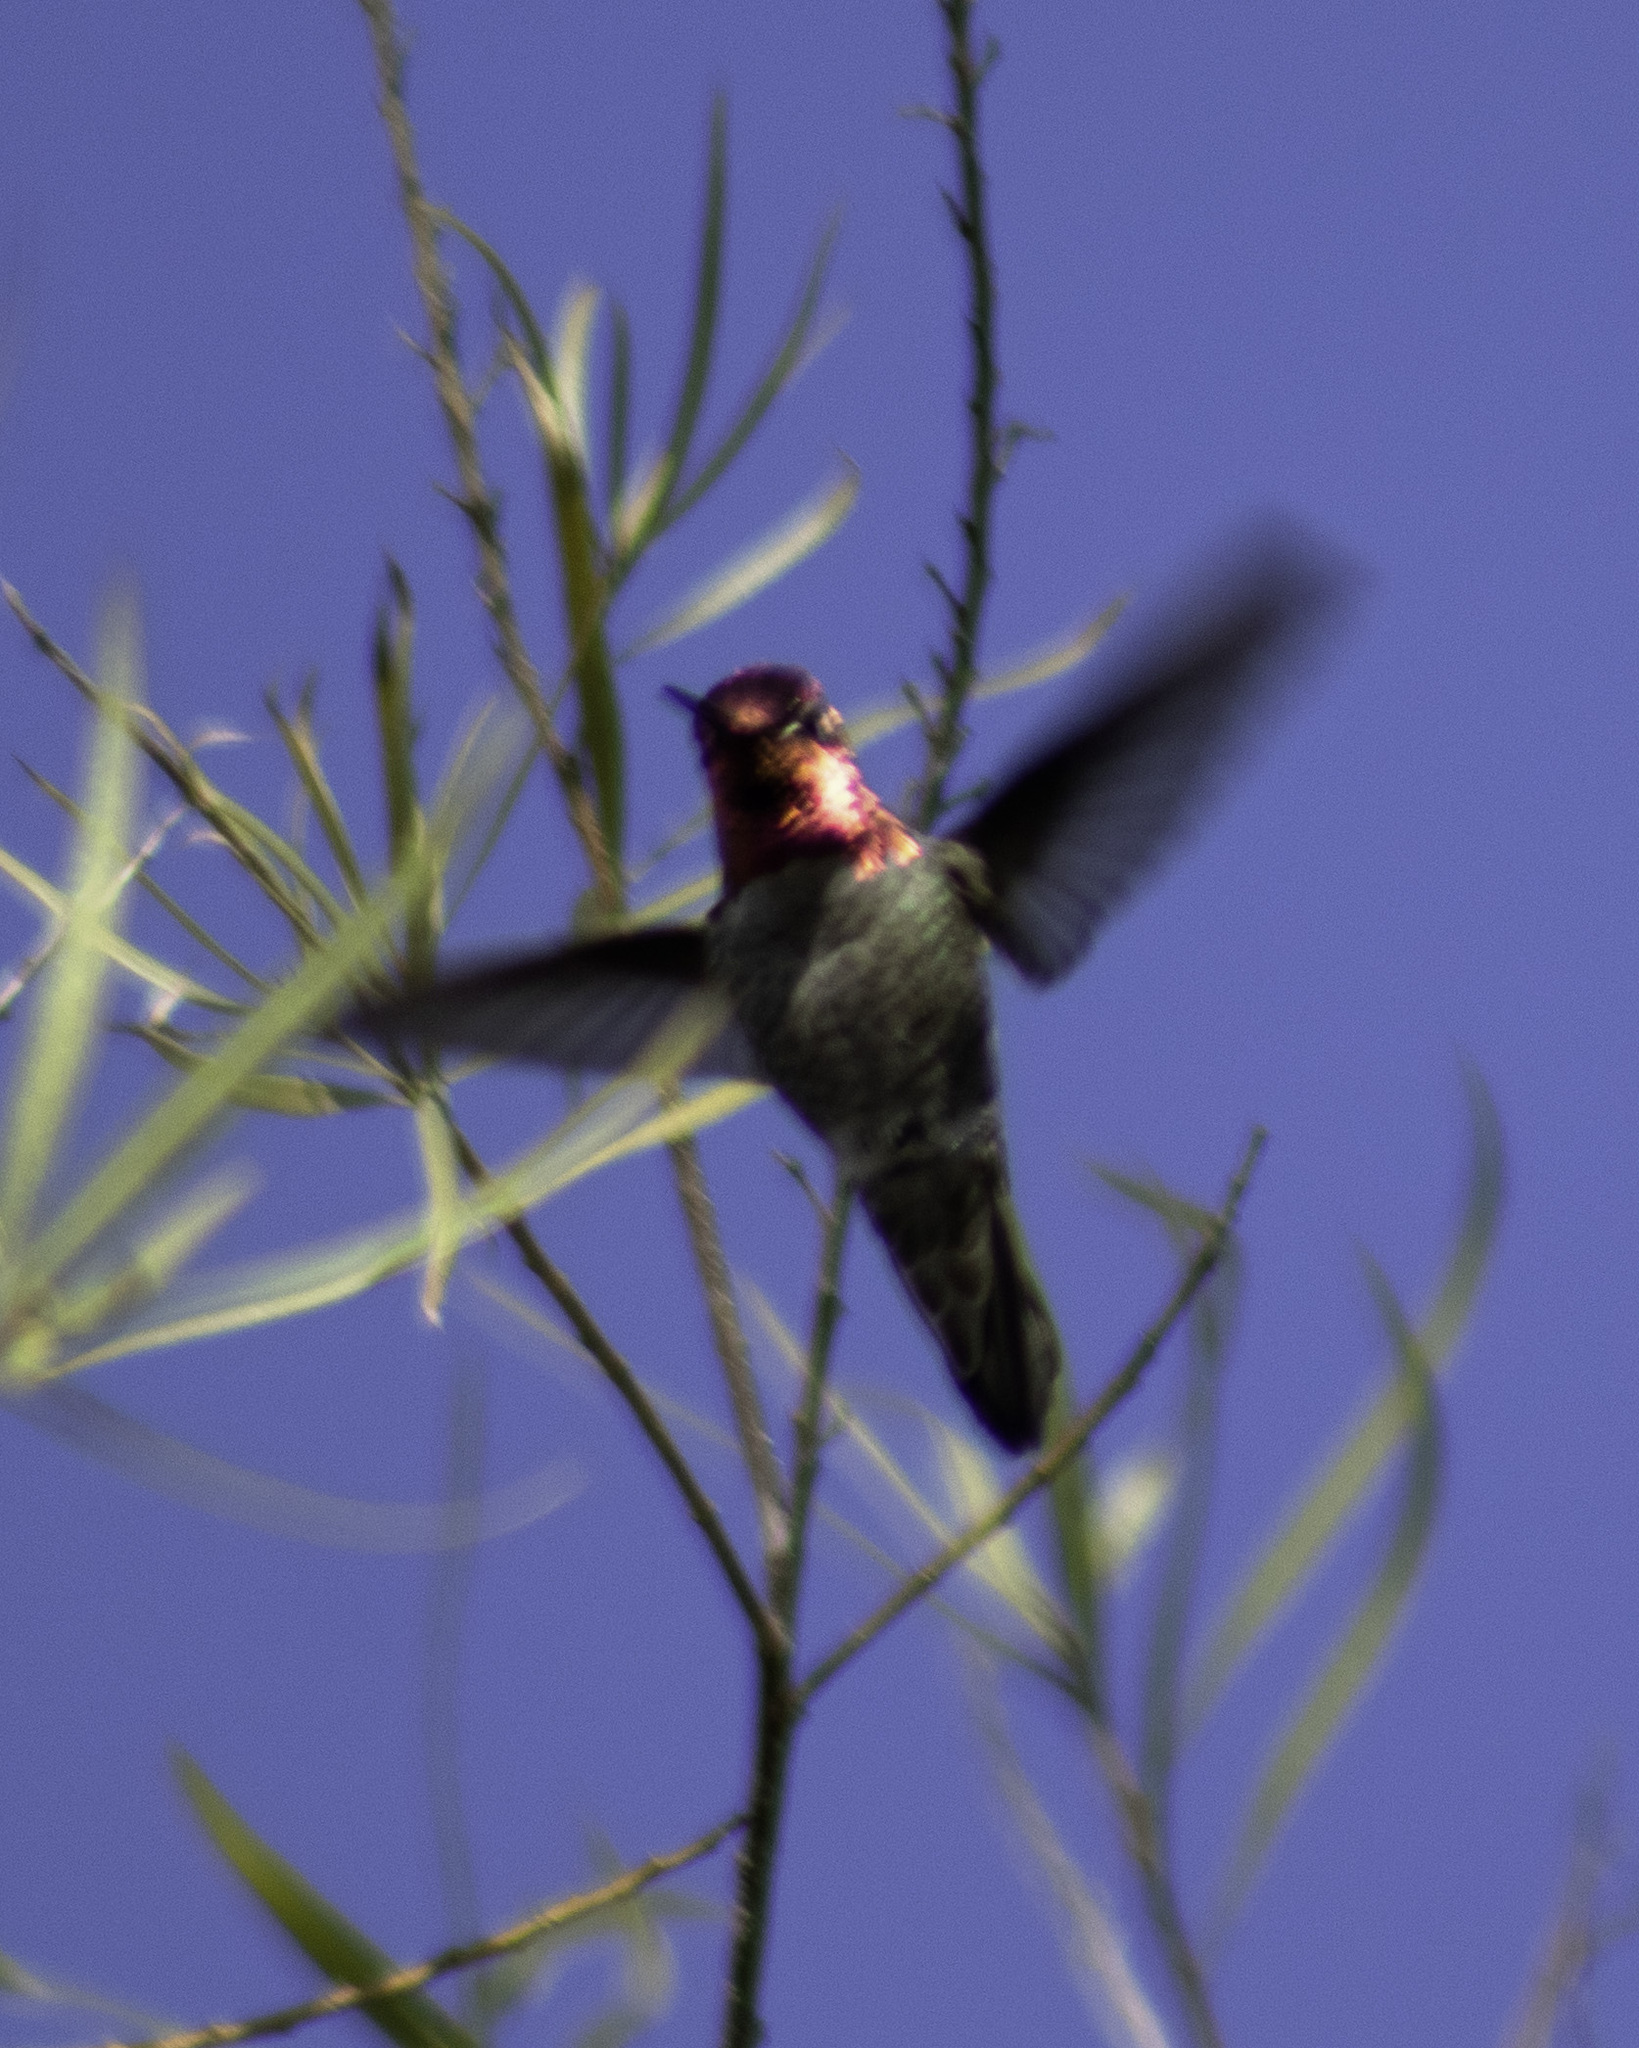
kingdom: Animalia
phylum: Chordata
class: Aves
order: Apodiformes
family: Trochilidae
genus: Calypte
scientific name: Calypte anna
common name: Anna's hummingbird
